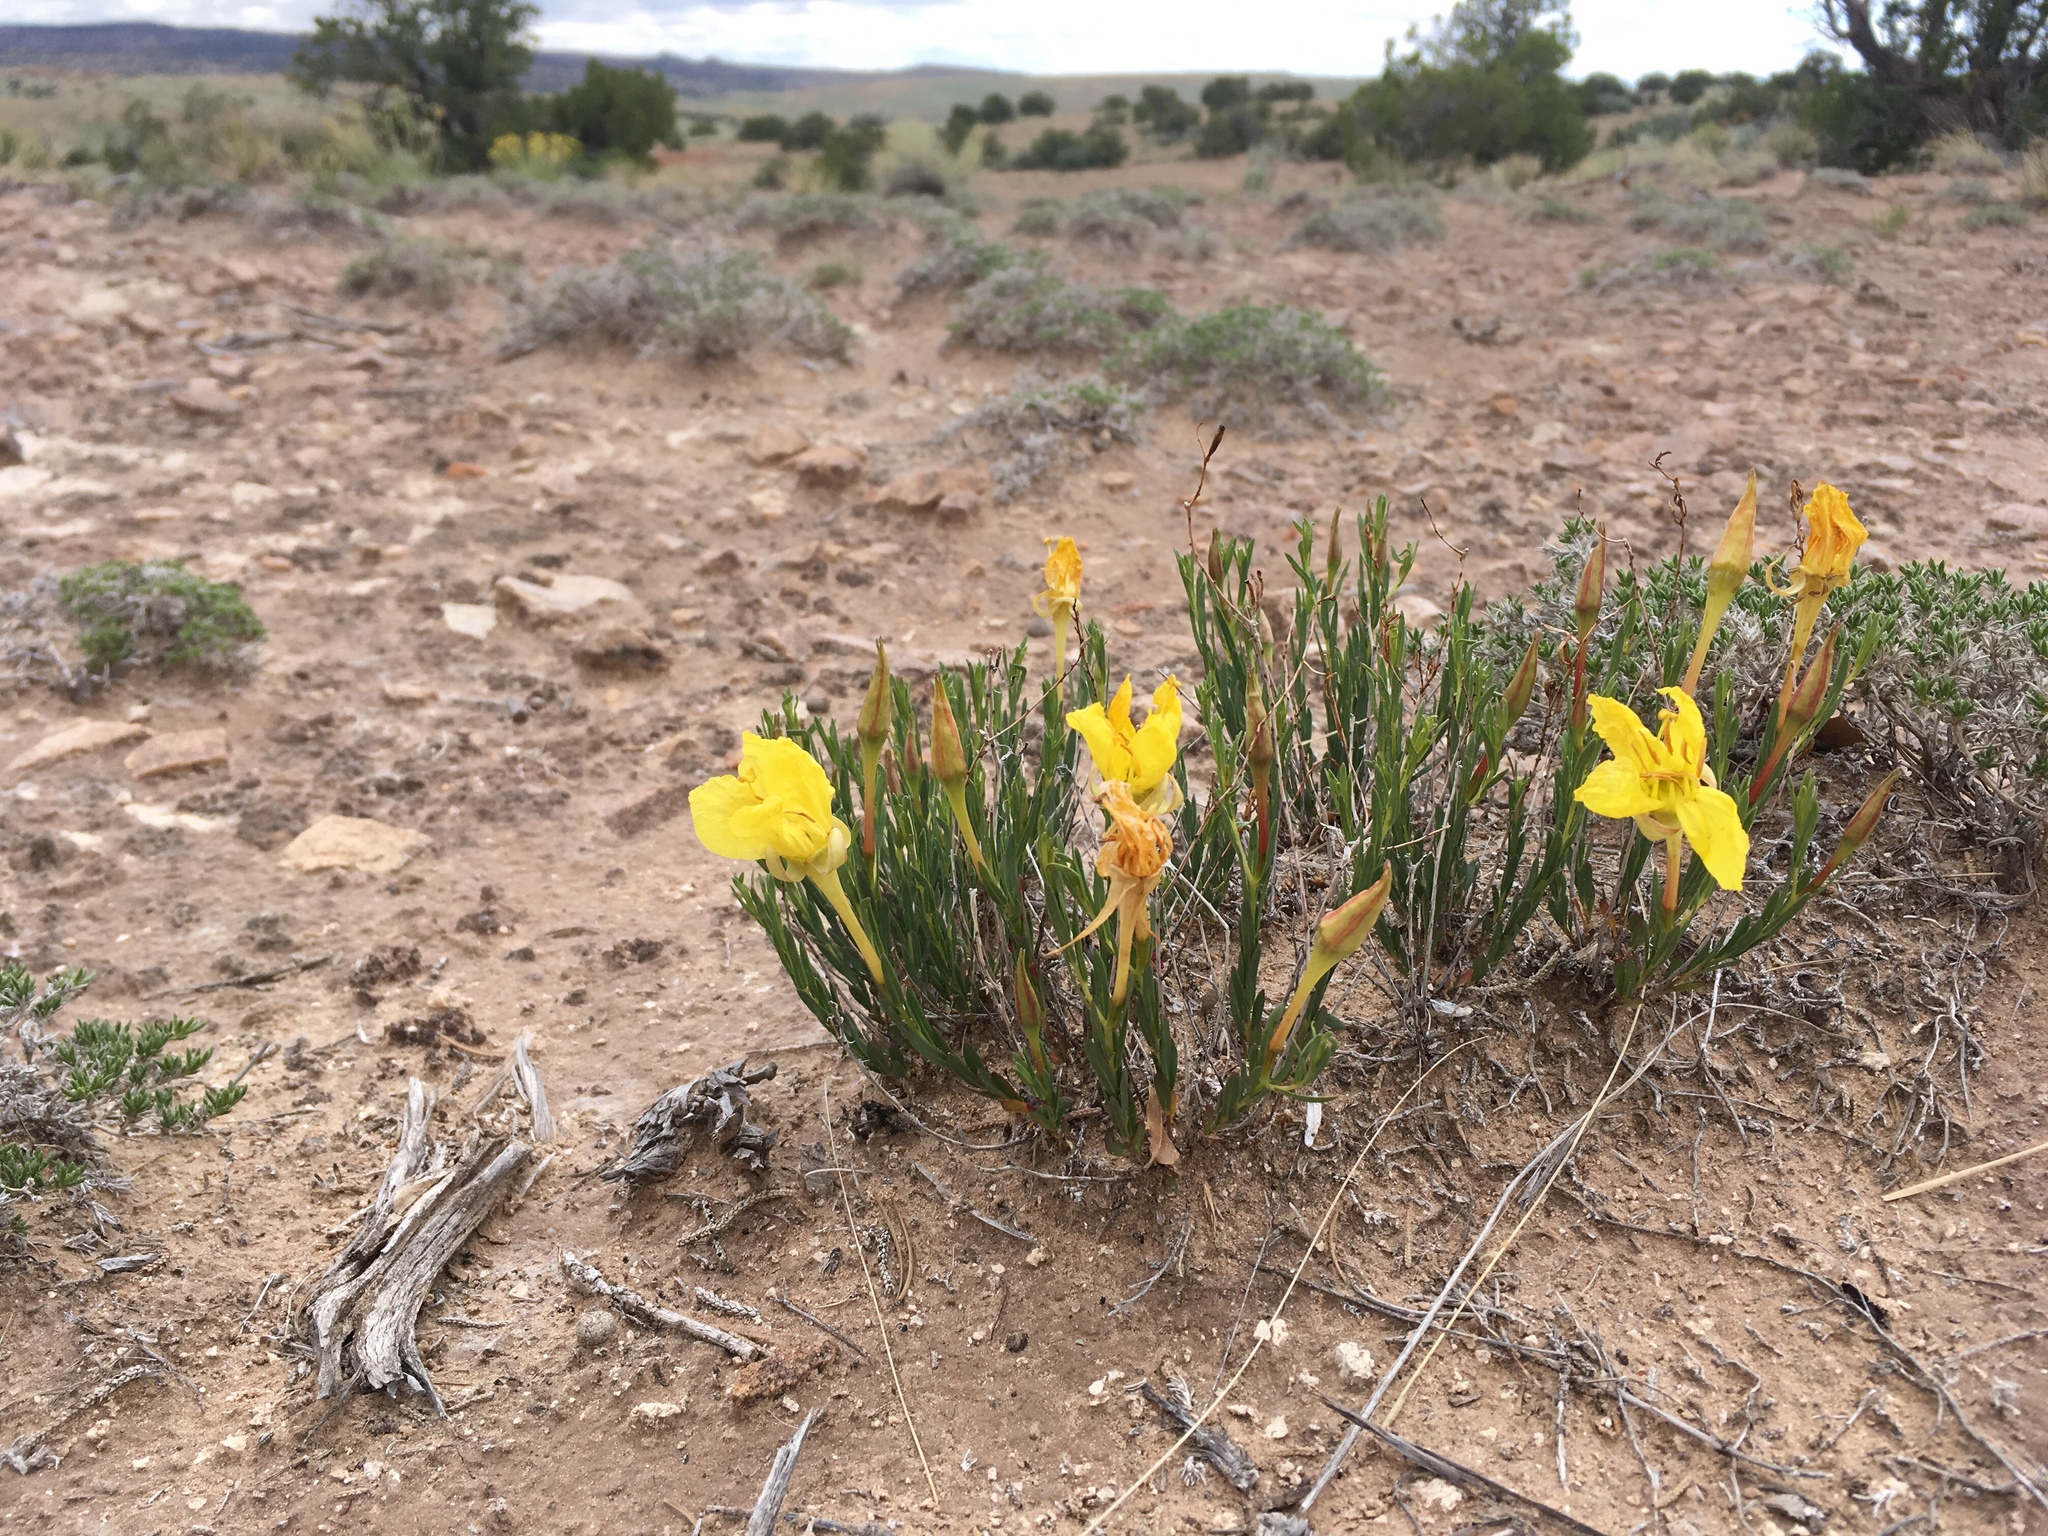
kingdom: Plantae
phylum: Tracheophyta
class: Magnoliopsida
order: Myrtales
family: Onagraceae
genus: Oenothera
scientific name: Oenothera hartwegii
